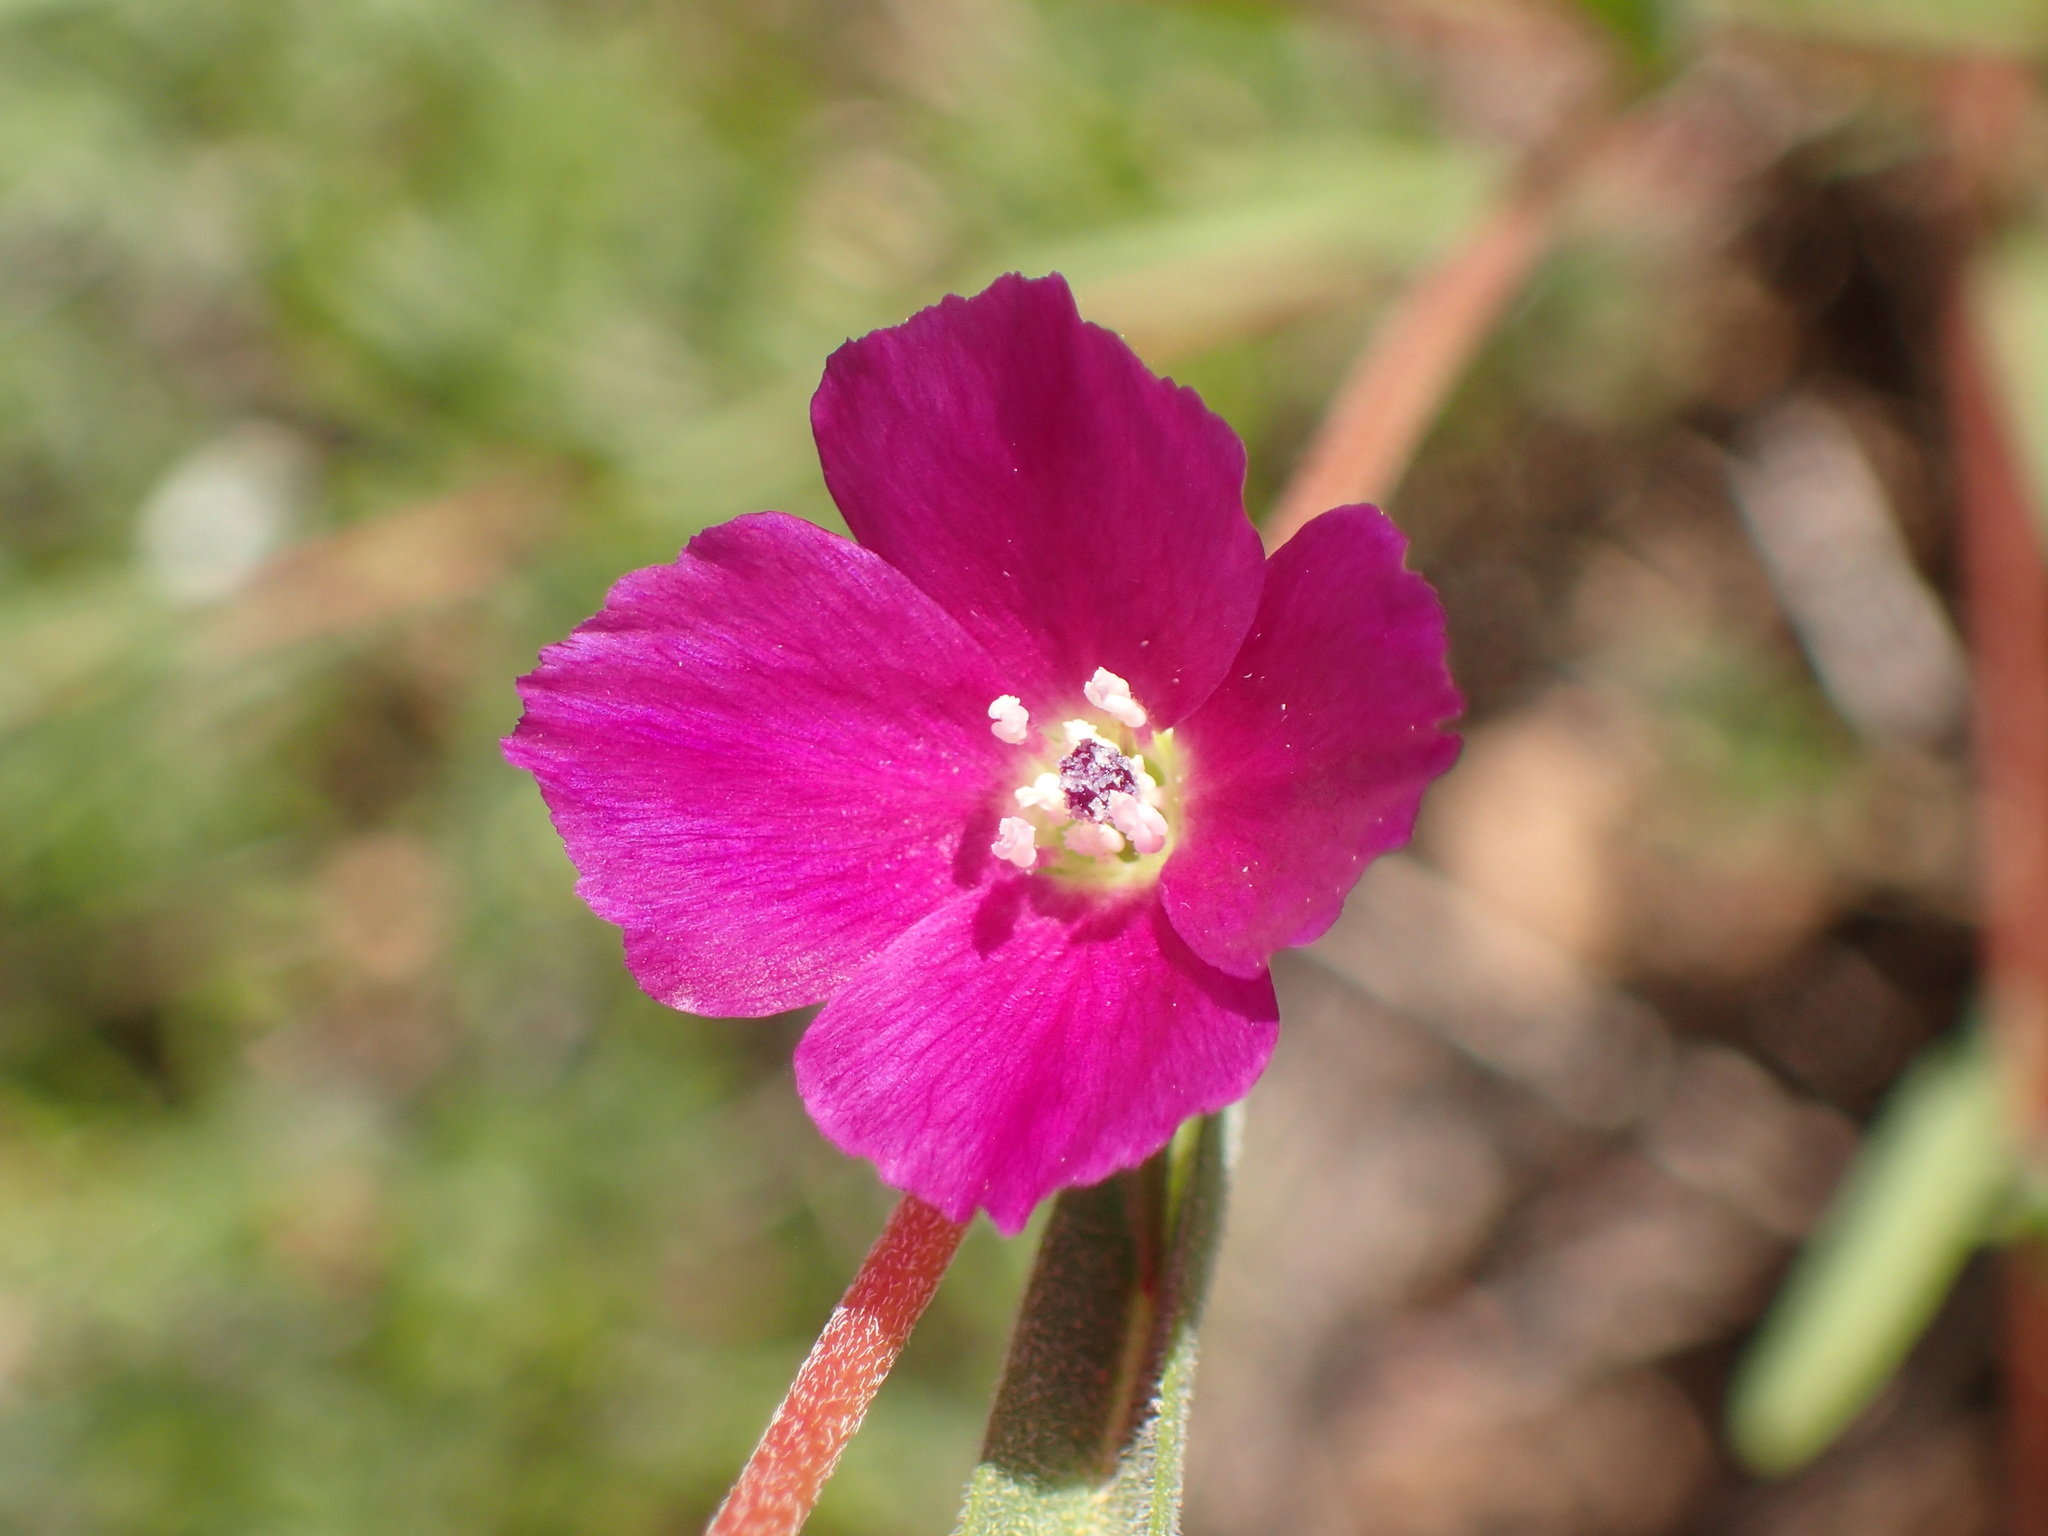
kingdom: Plantae
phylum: Tracheophyta
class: Magnoliopsida
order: Myrtales
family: Onagraceae
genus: Clarkia
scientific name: Clarkia purpurea
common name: Purple clarkia
